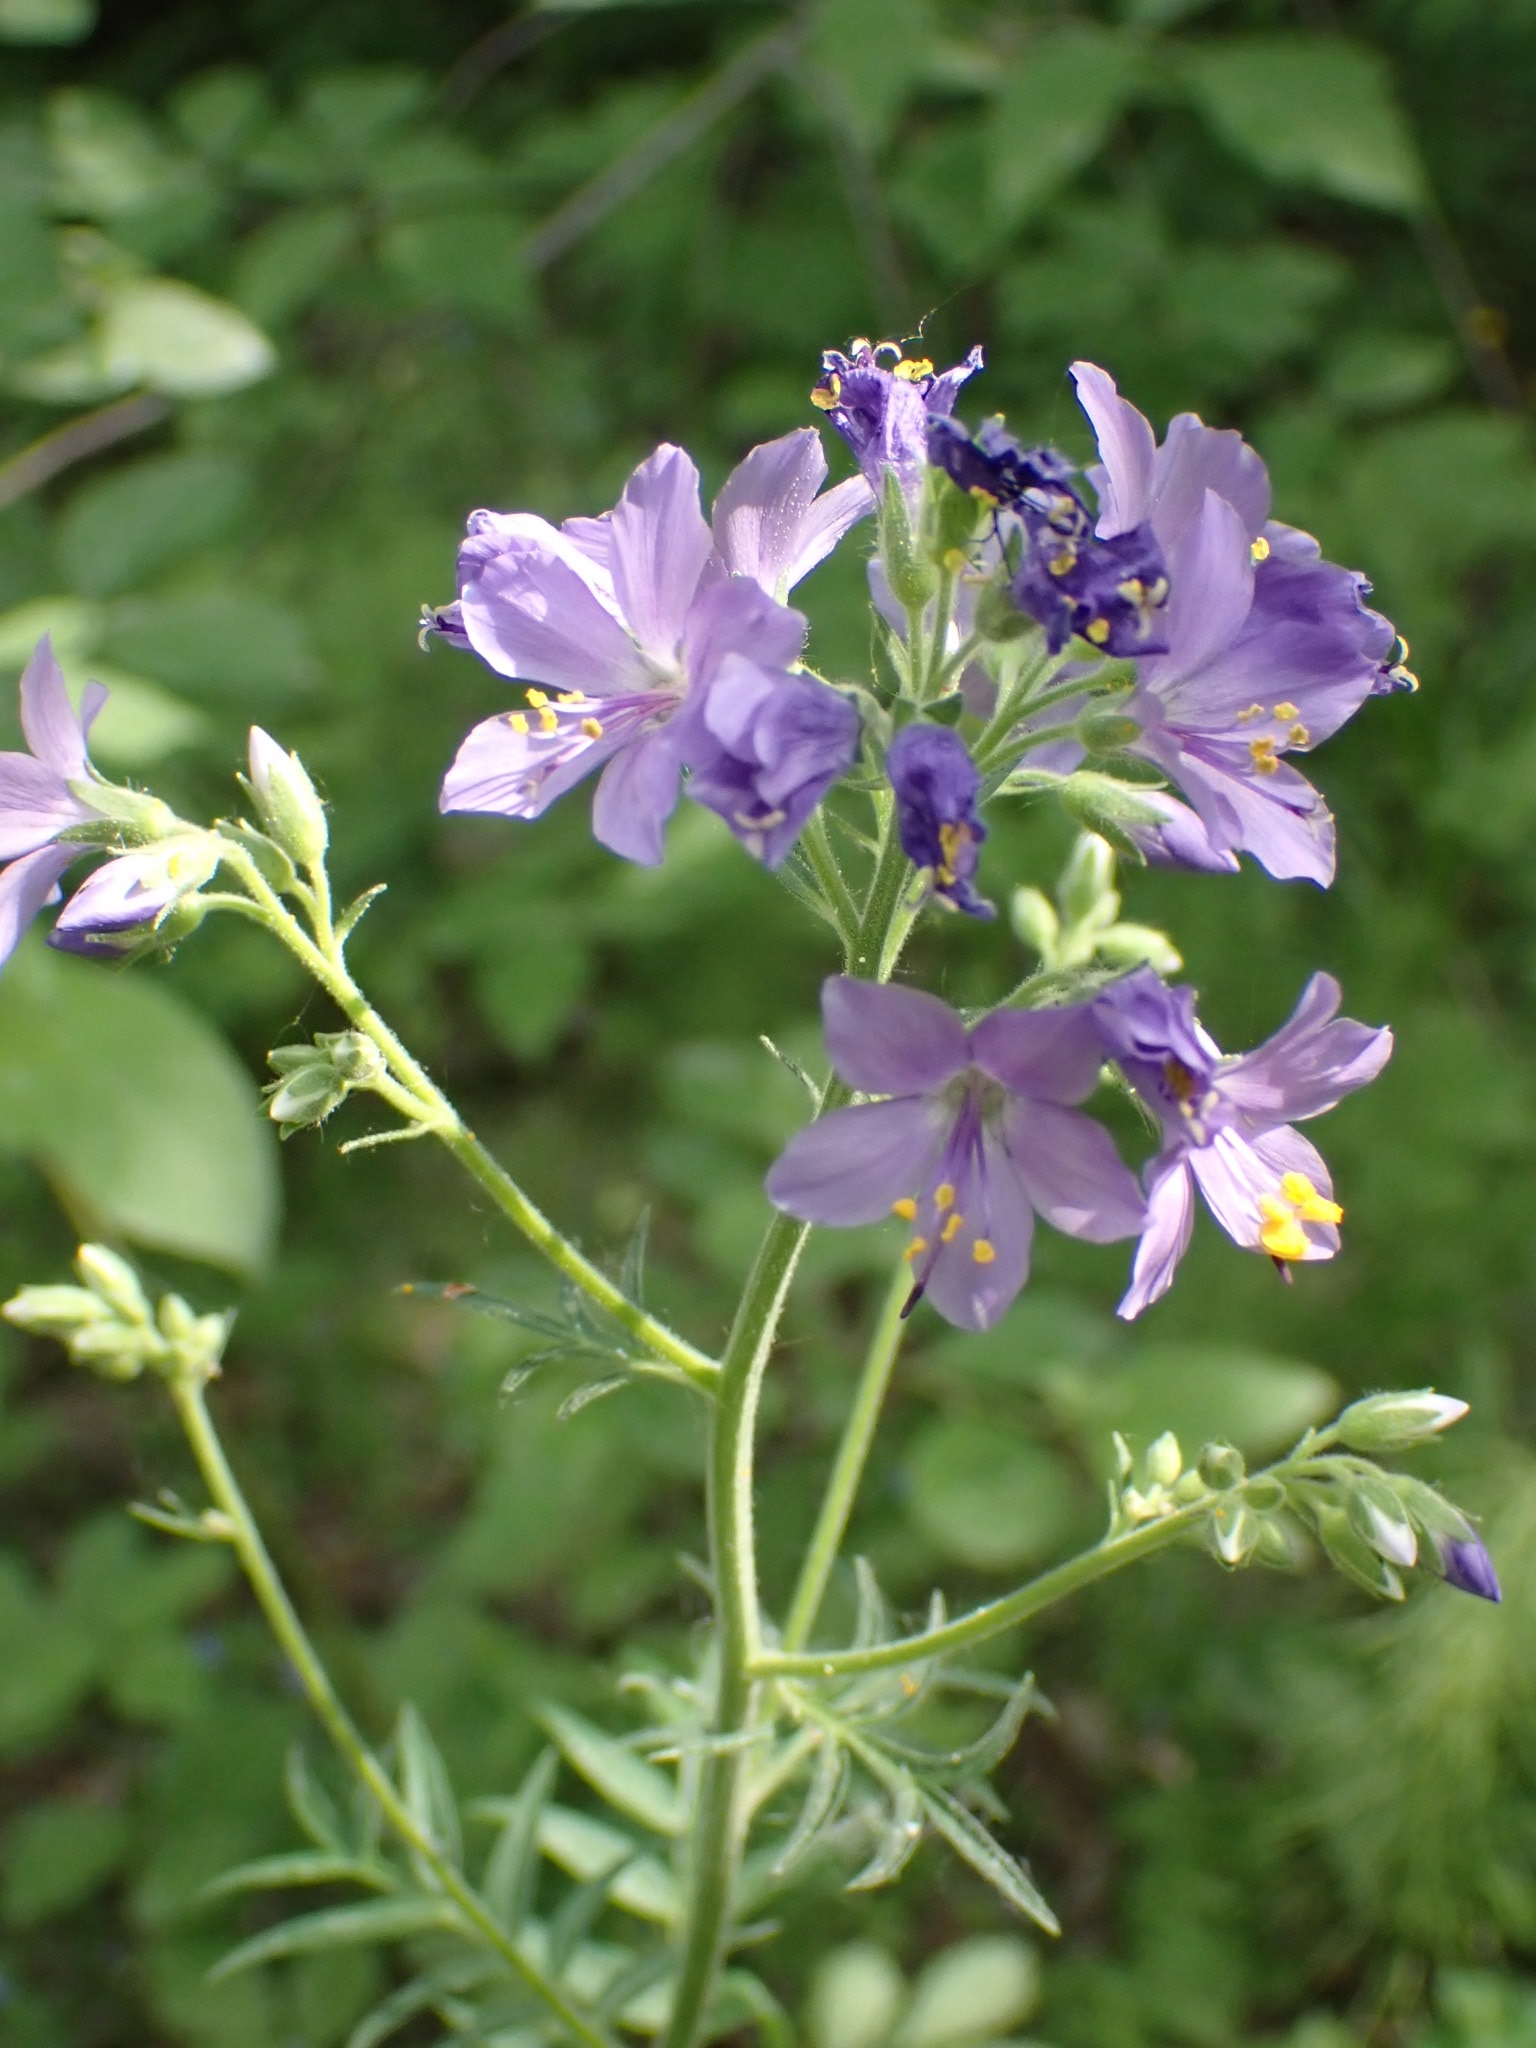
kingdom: Plantae
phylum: Tracheophyta
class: Magnoliopsida
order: Ericales
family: Polemoniaceae
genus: Polemonium
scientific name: Polemonium caeruleum
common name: Jacob's-ladder
